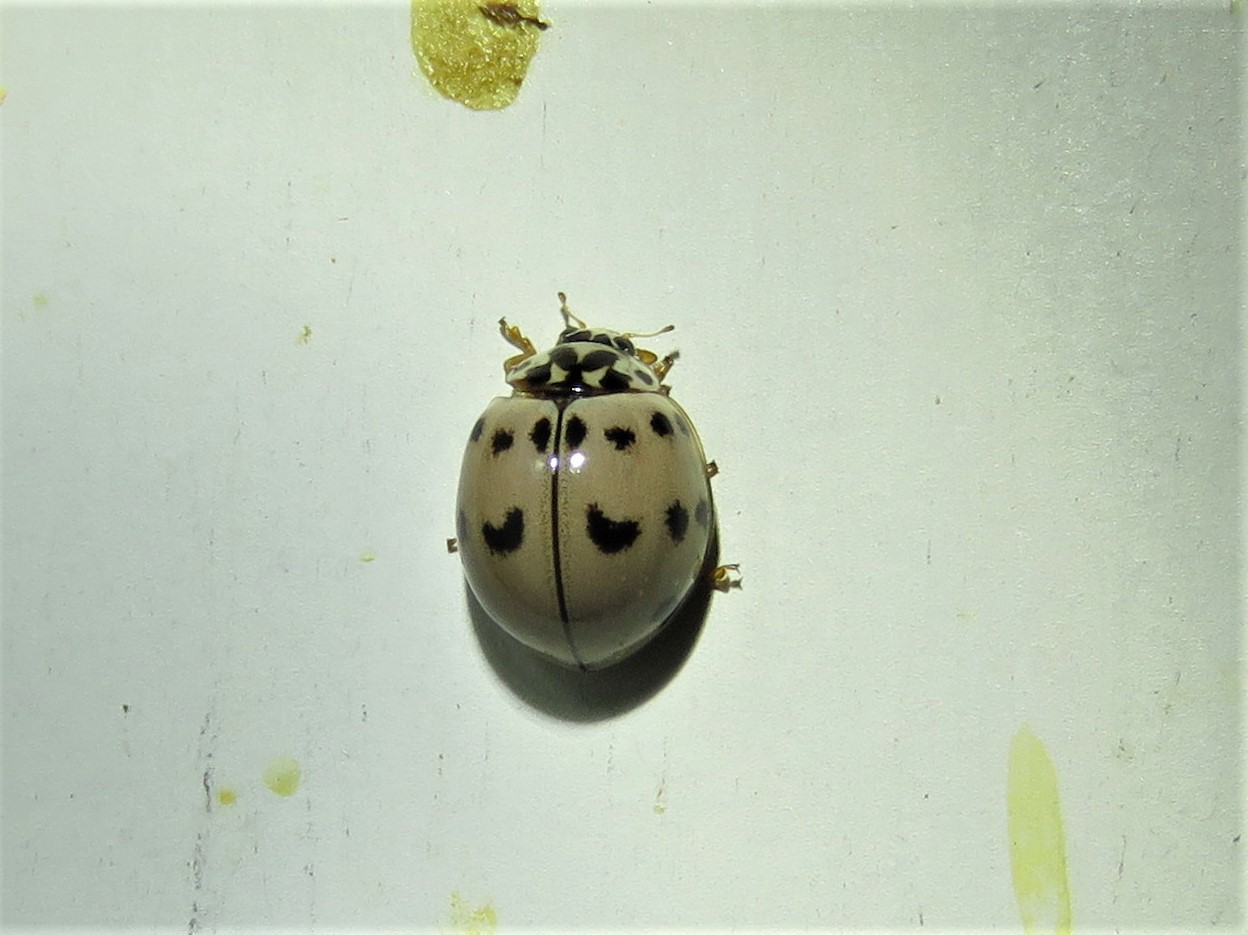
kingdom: Animalia
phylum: Arthropoda
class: Insecta
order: Coleoptera
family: Coccinellidae
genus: Olla
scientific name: Olla v-nigrum
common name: Ashy gray lady beetle
